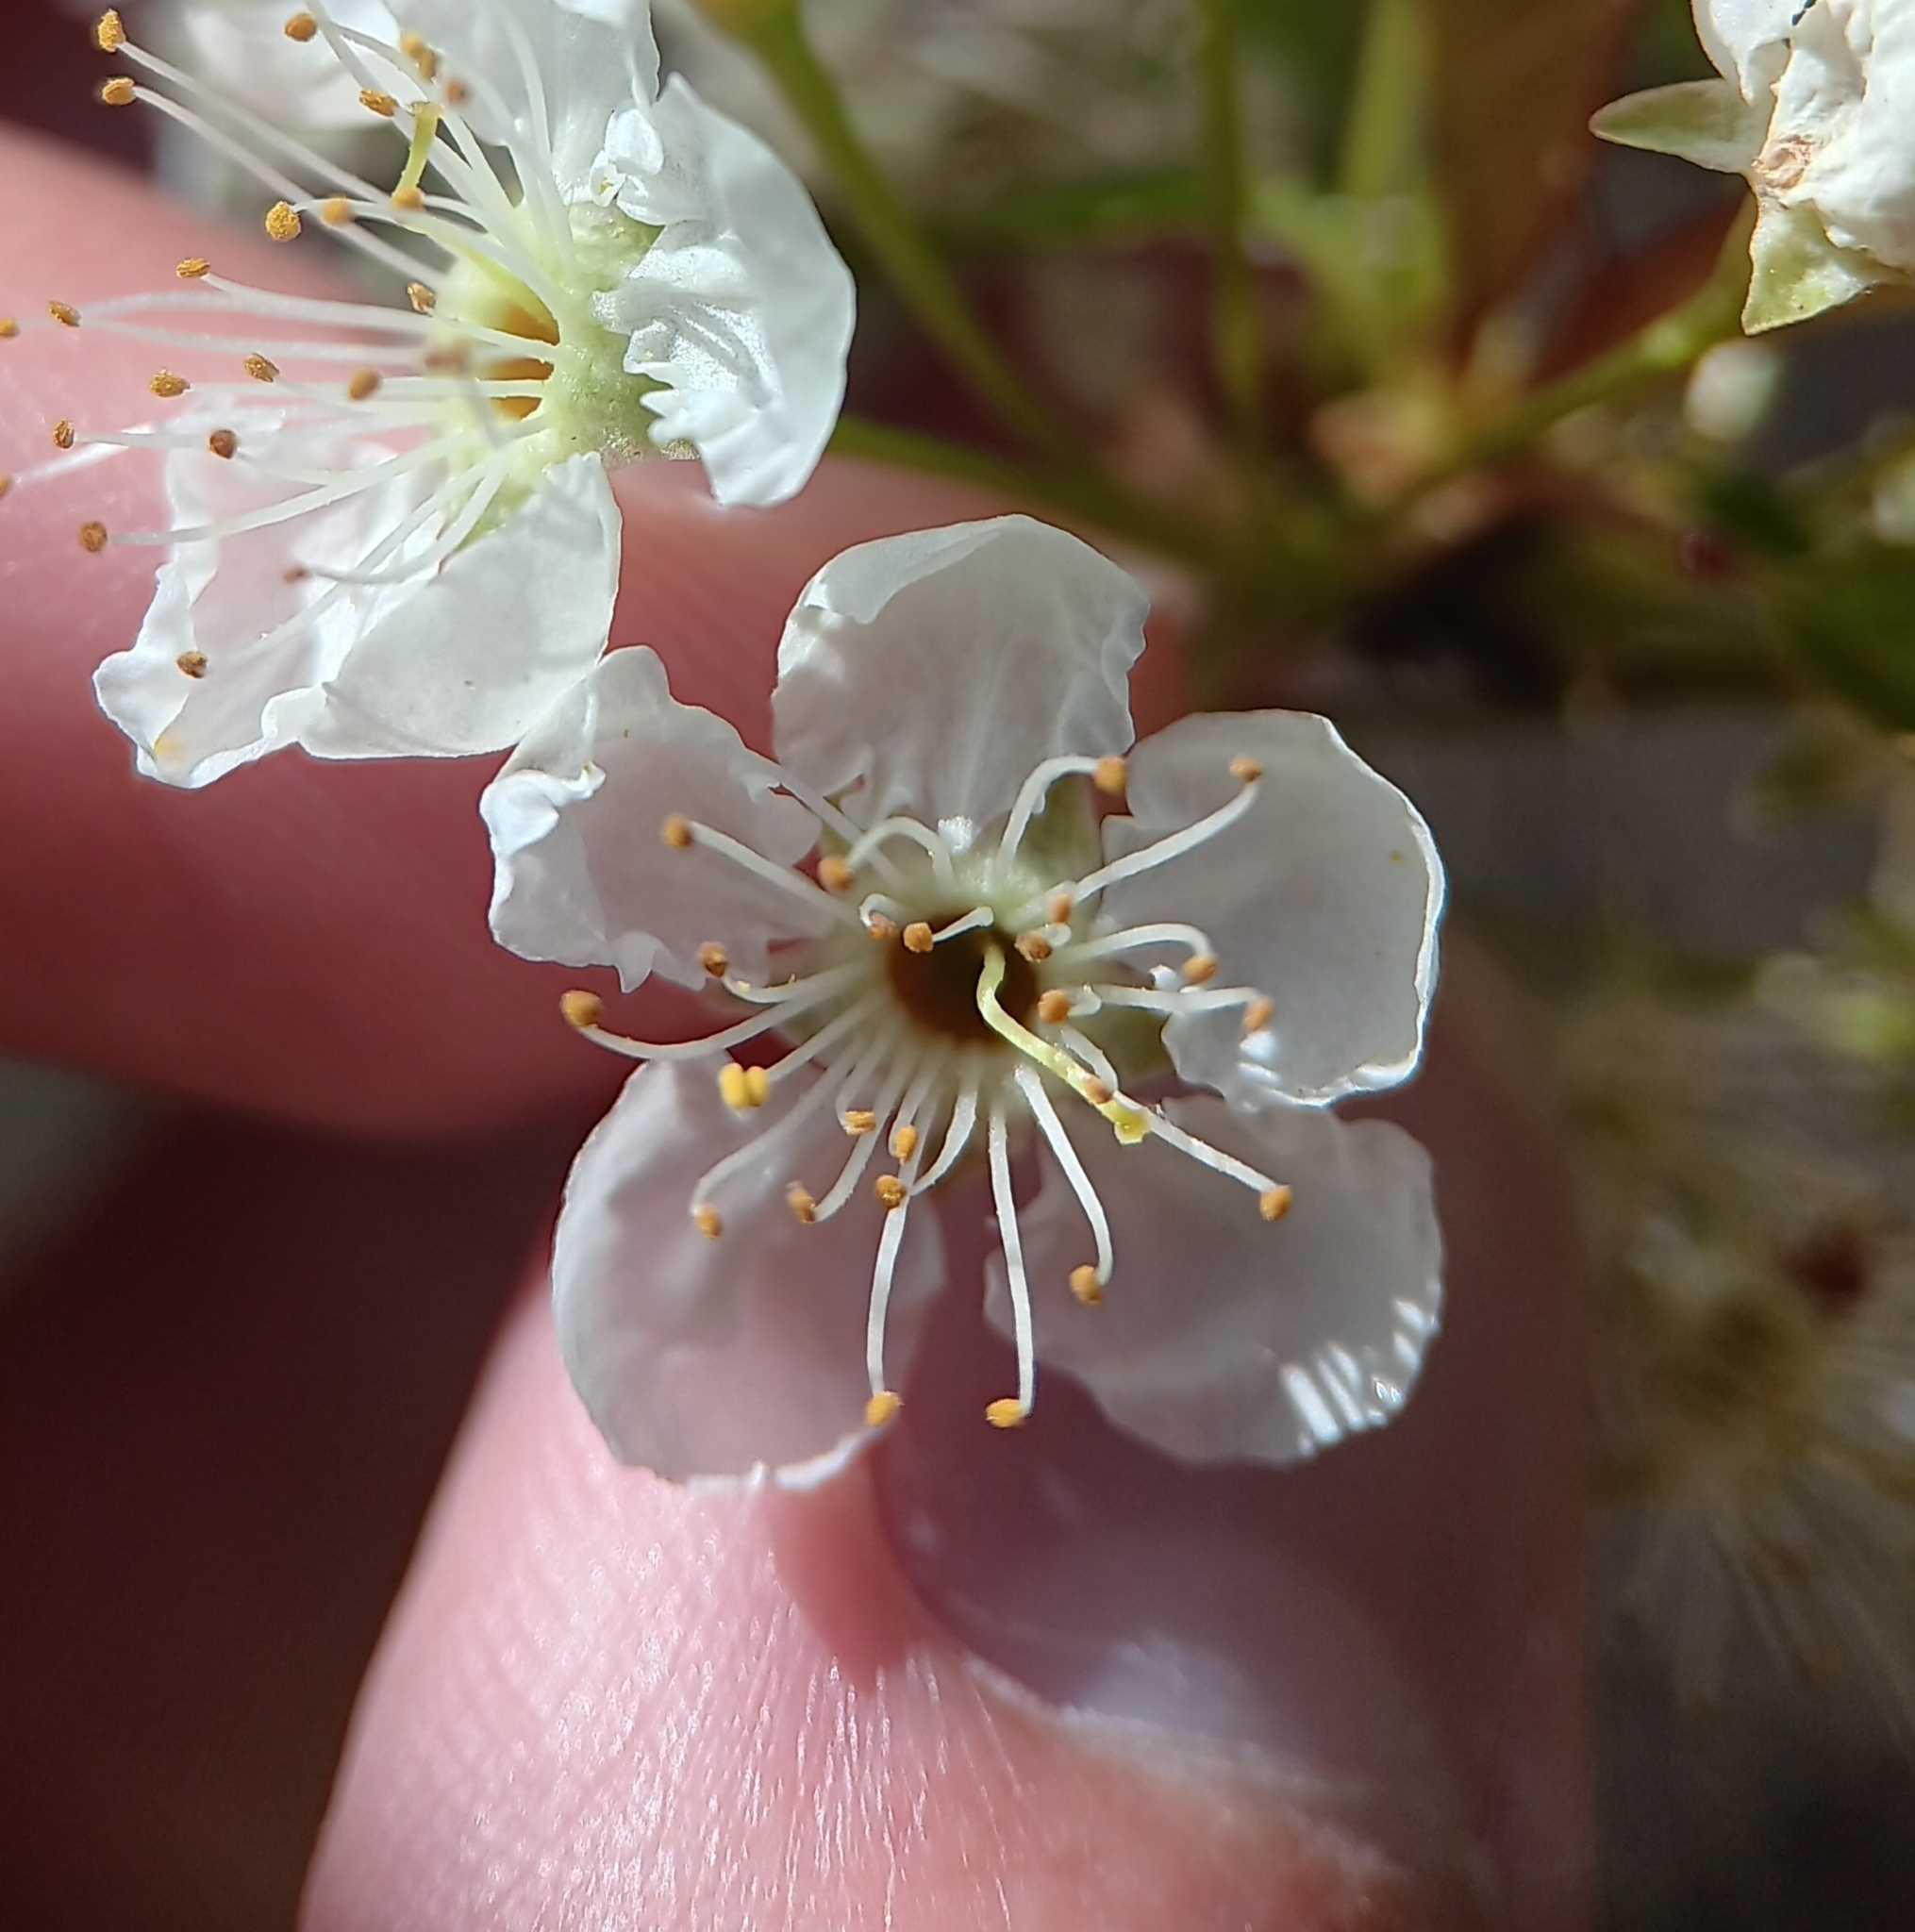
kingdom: Plantae
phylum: Tracheophyta
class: Magnoliopsida
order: Rosales
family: Rosaceae
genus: Prunus
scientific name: Prunus pensylvanica
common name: Pin cherry
